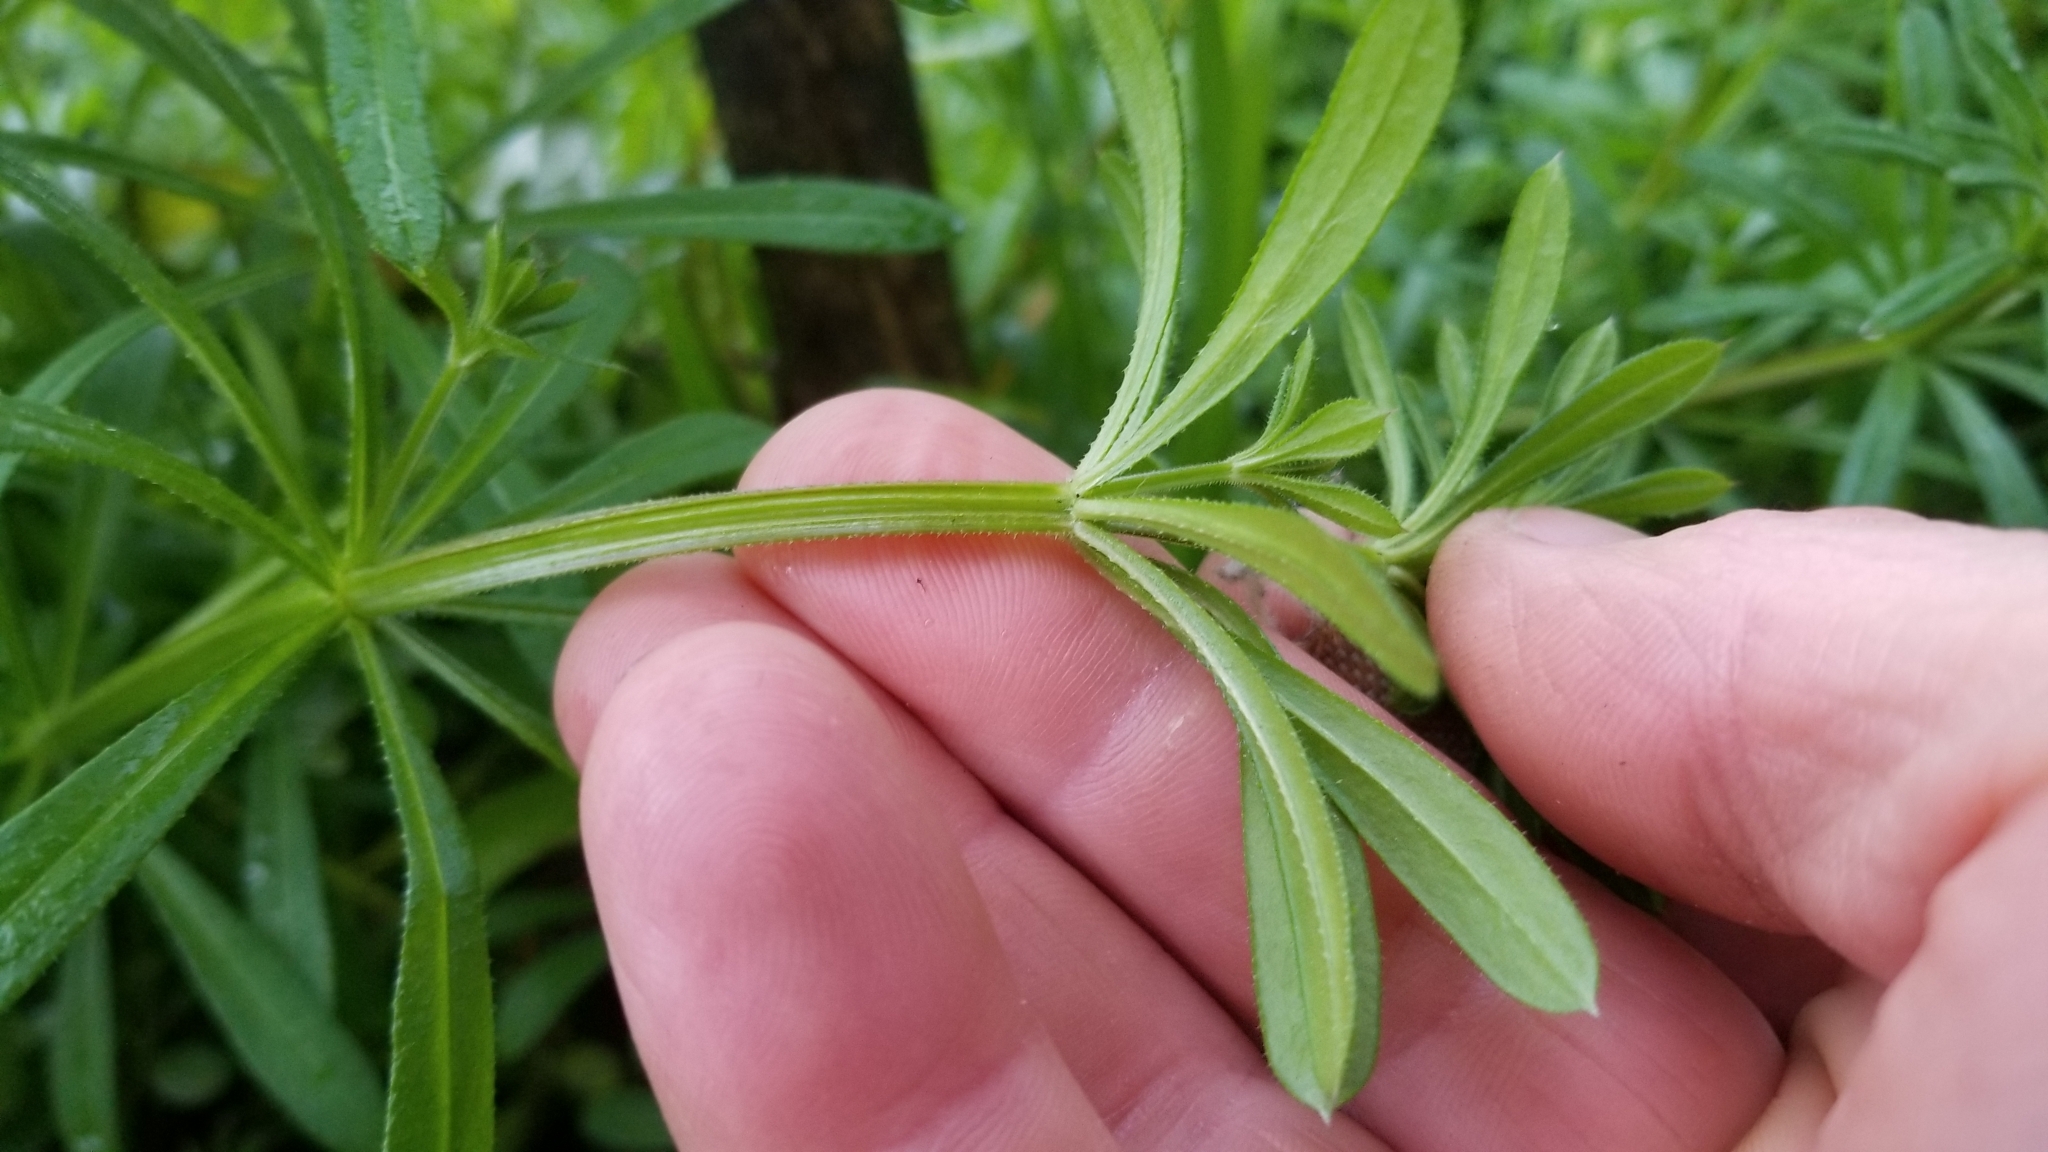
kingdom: Plantae
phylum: Tracheophyta
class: Magnoliopsida
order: Gentianales
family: Rubiaceae
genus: Galium
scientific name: Galium aparine
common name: Cleavers
